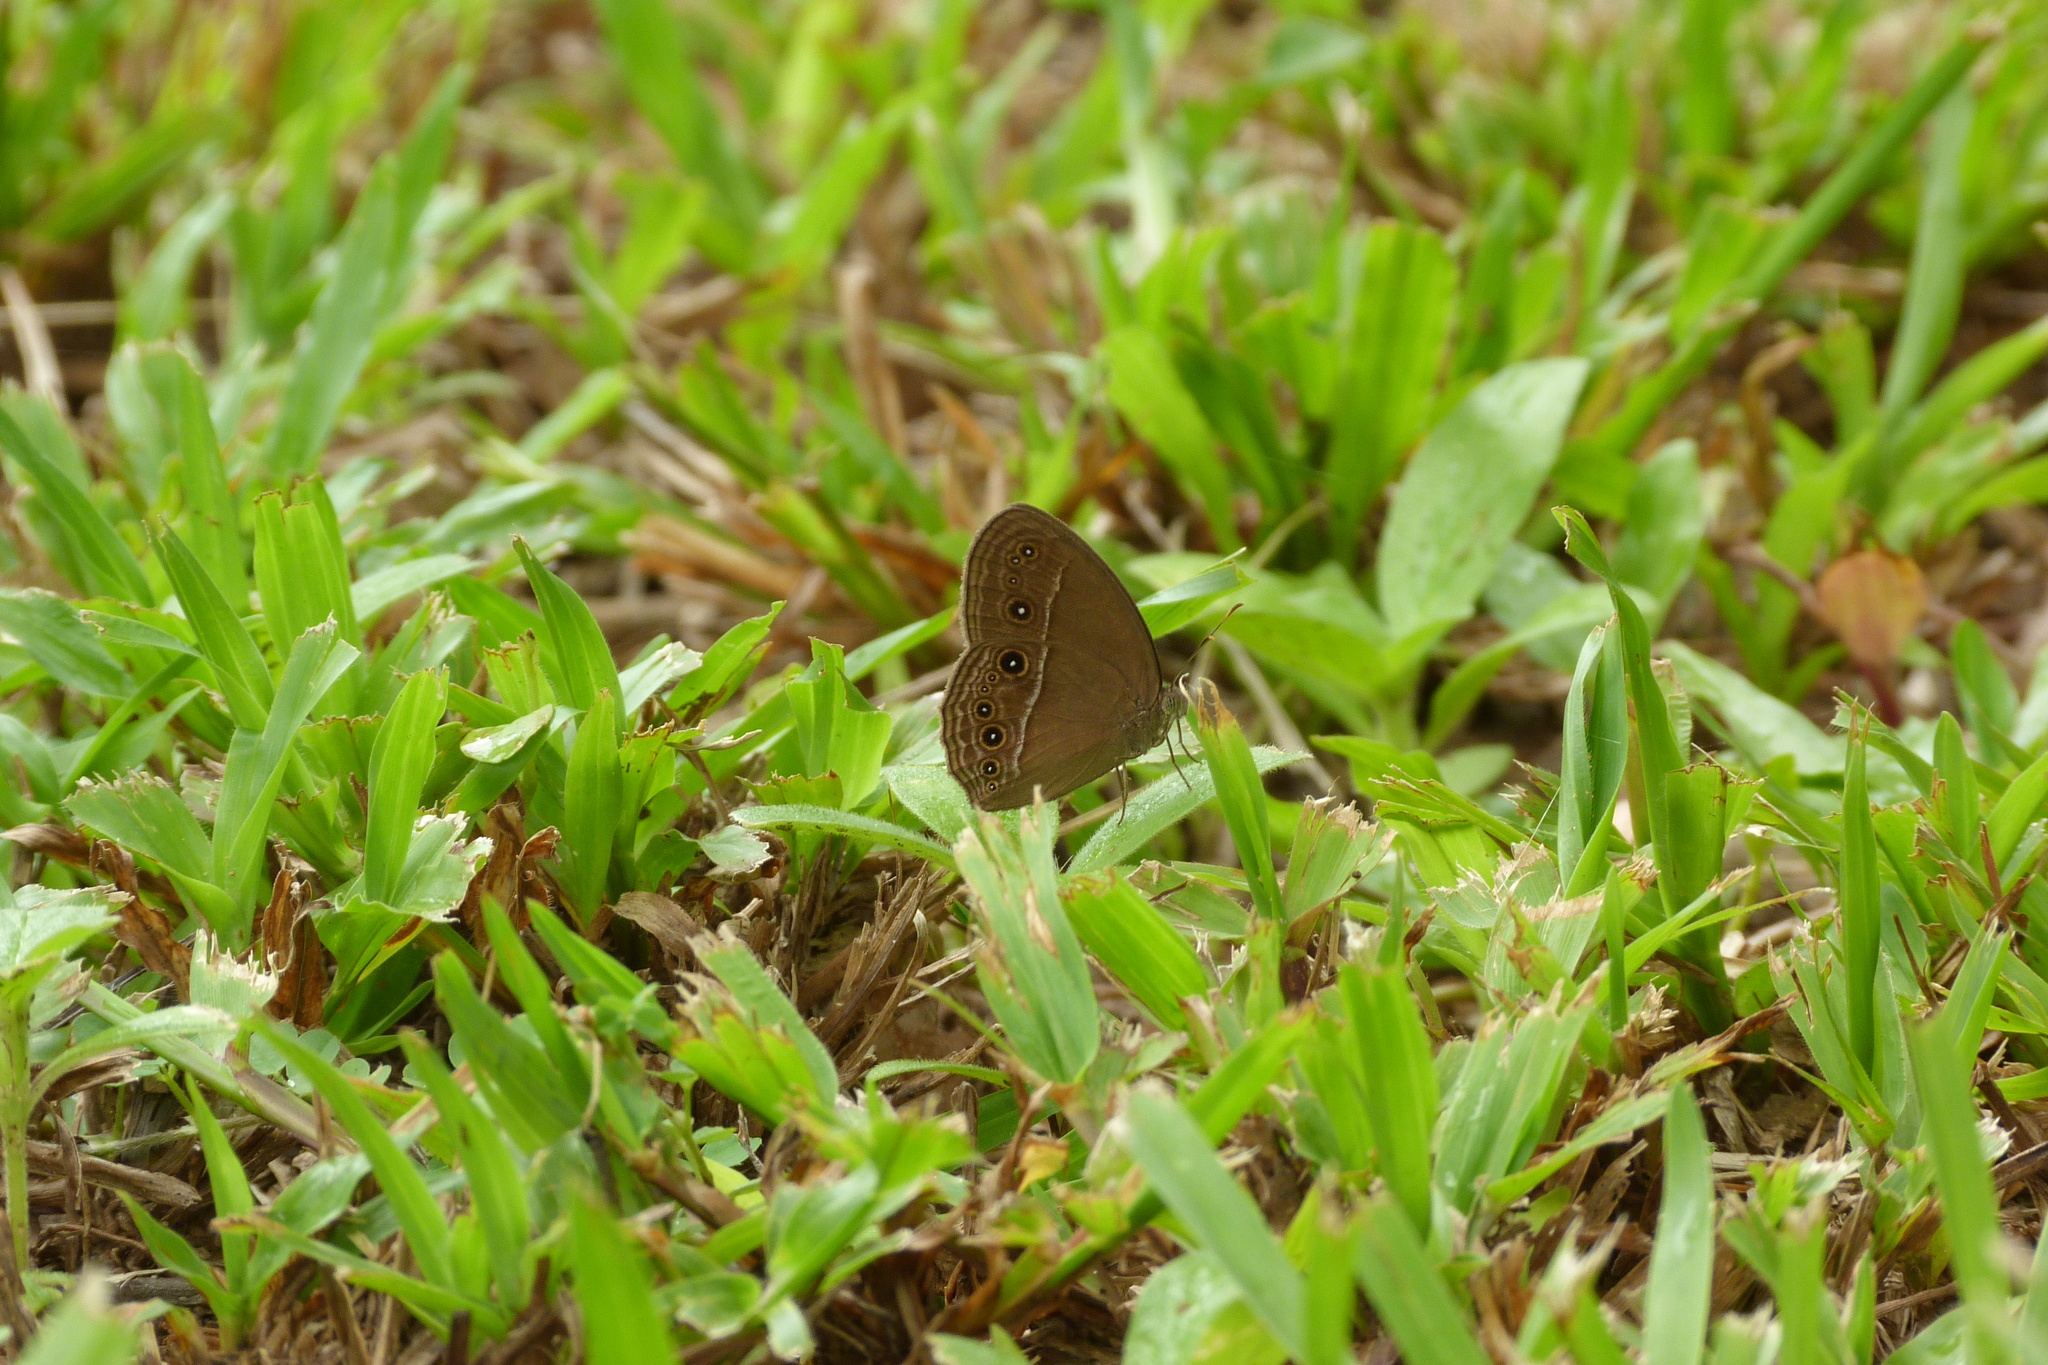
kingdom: Animalia
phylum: Arthropoda
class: Insecta
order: Lepidoptera
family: Nymphalidae
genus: Mycalesis
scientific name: Mycalesis perseus
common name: Dingy bushbrown
